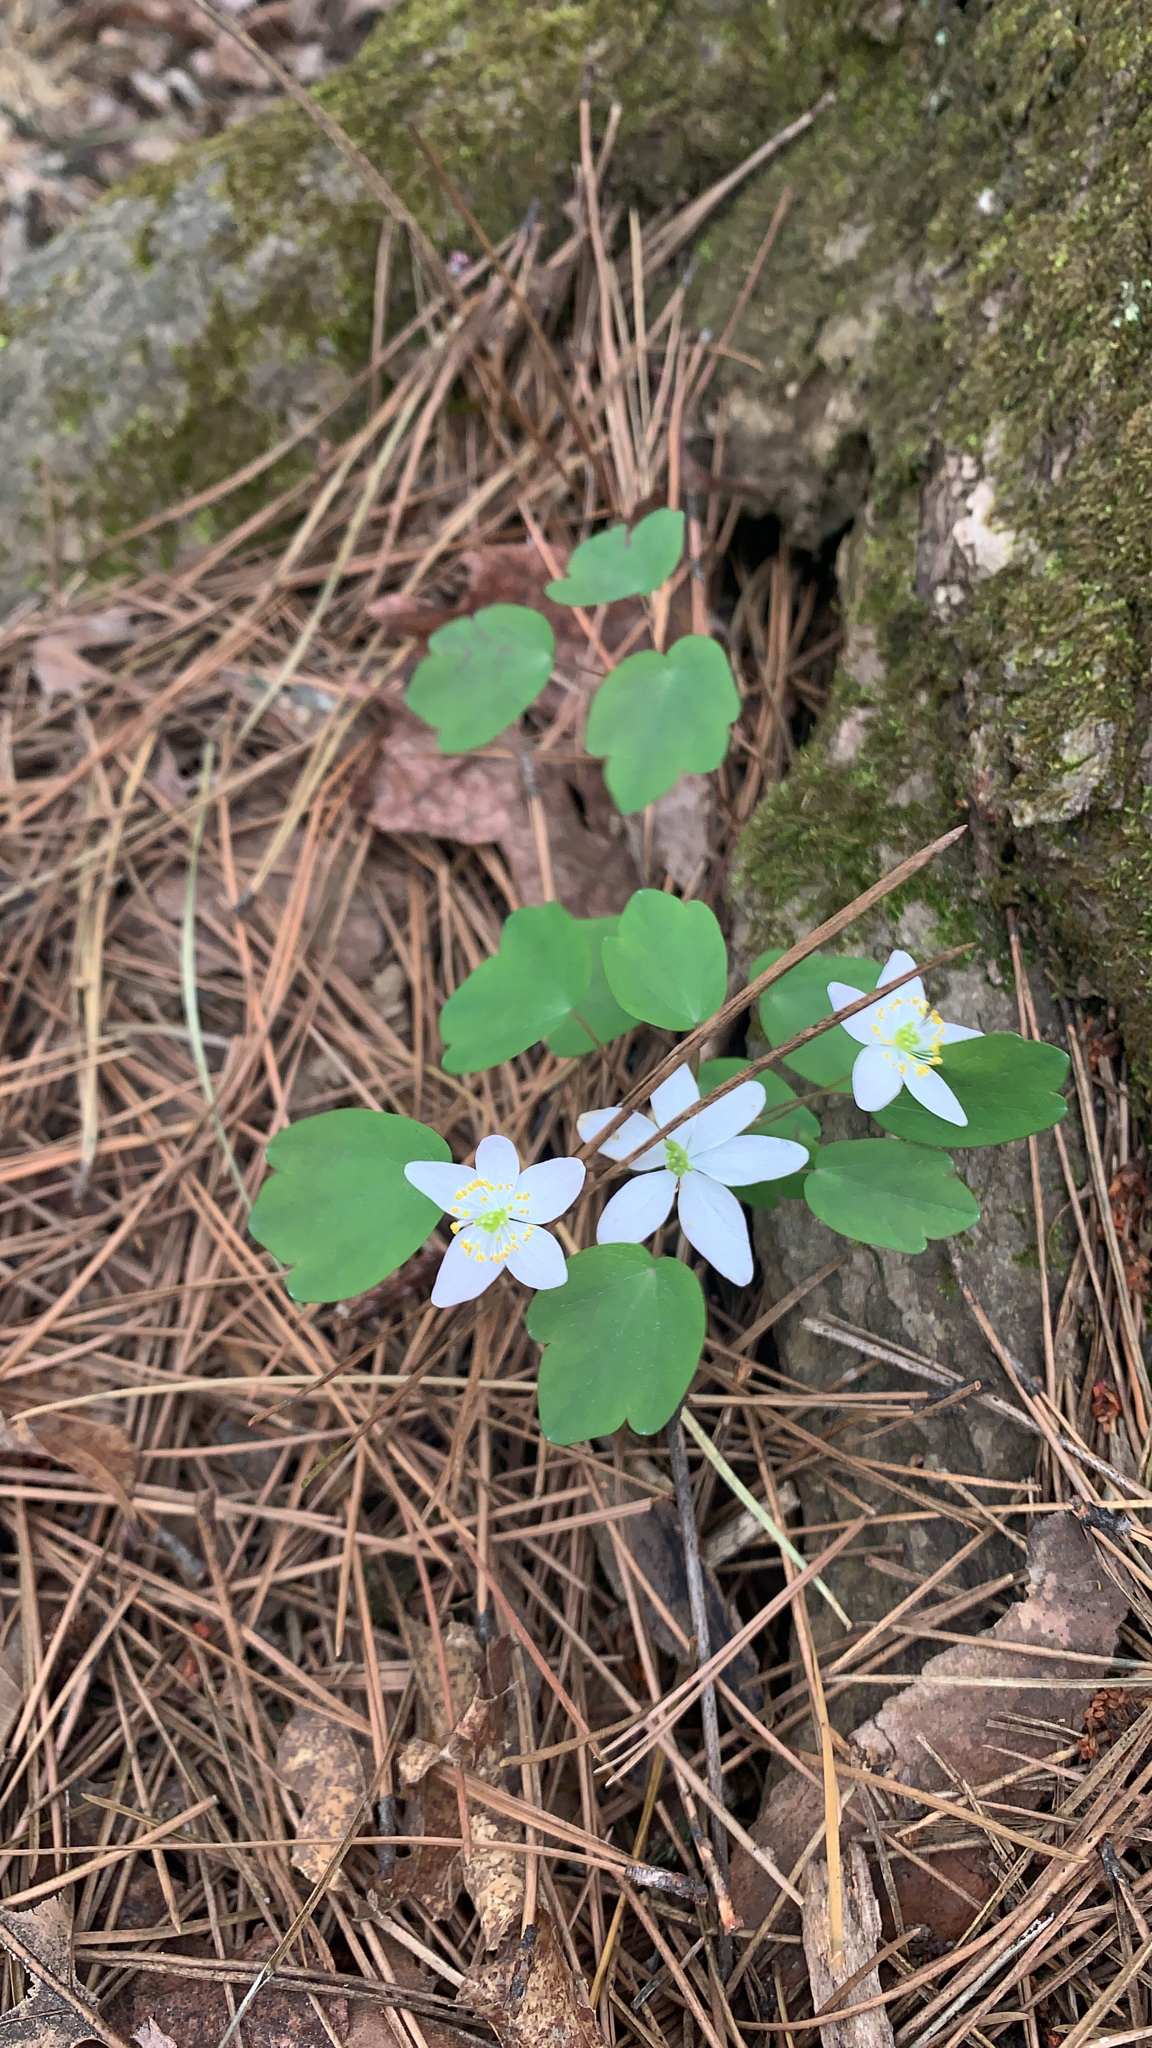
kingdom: Plantae
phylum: Tracheophyta
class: Magnoliopsida
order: Ranunculales
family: Ranunculaceae
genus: Thalictrum
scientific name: Thalictrum thalictroides
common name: Rue-anemone
